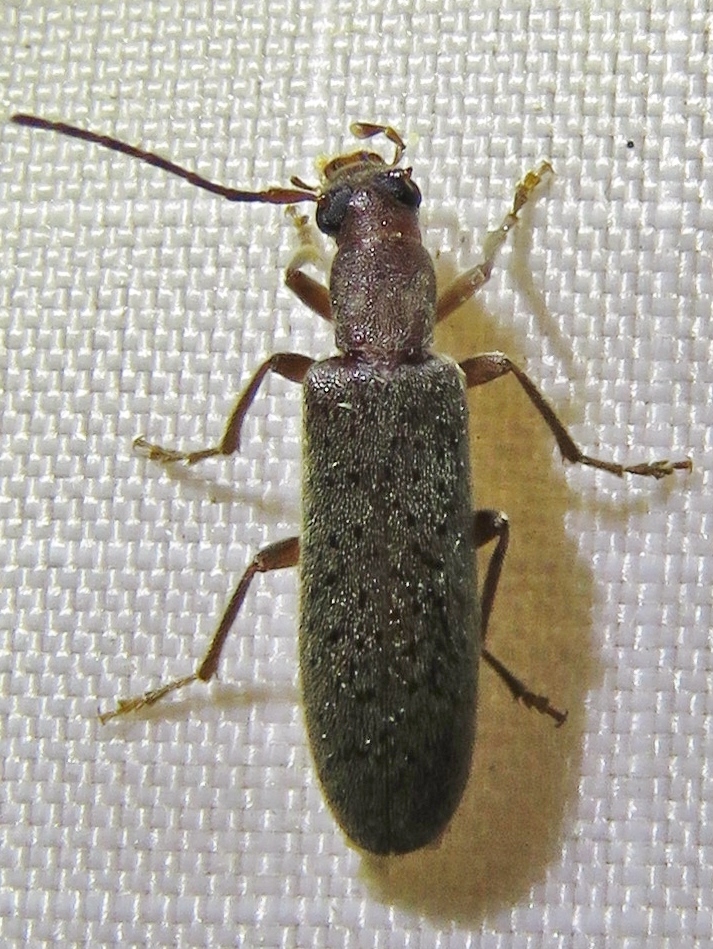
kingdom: Animalia
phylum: Arthropoda
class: Insecta
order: Coleoptera
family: Oedemeridae
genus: Sparedrus
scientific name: Sparedrus aspersus
